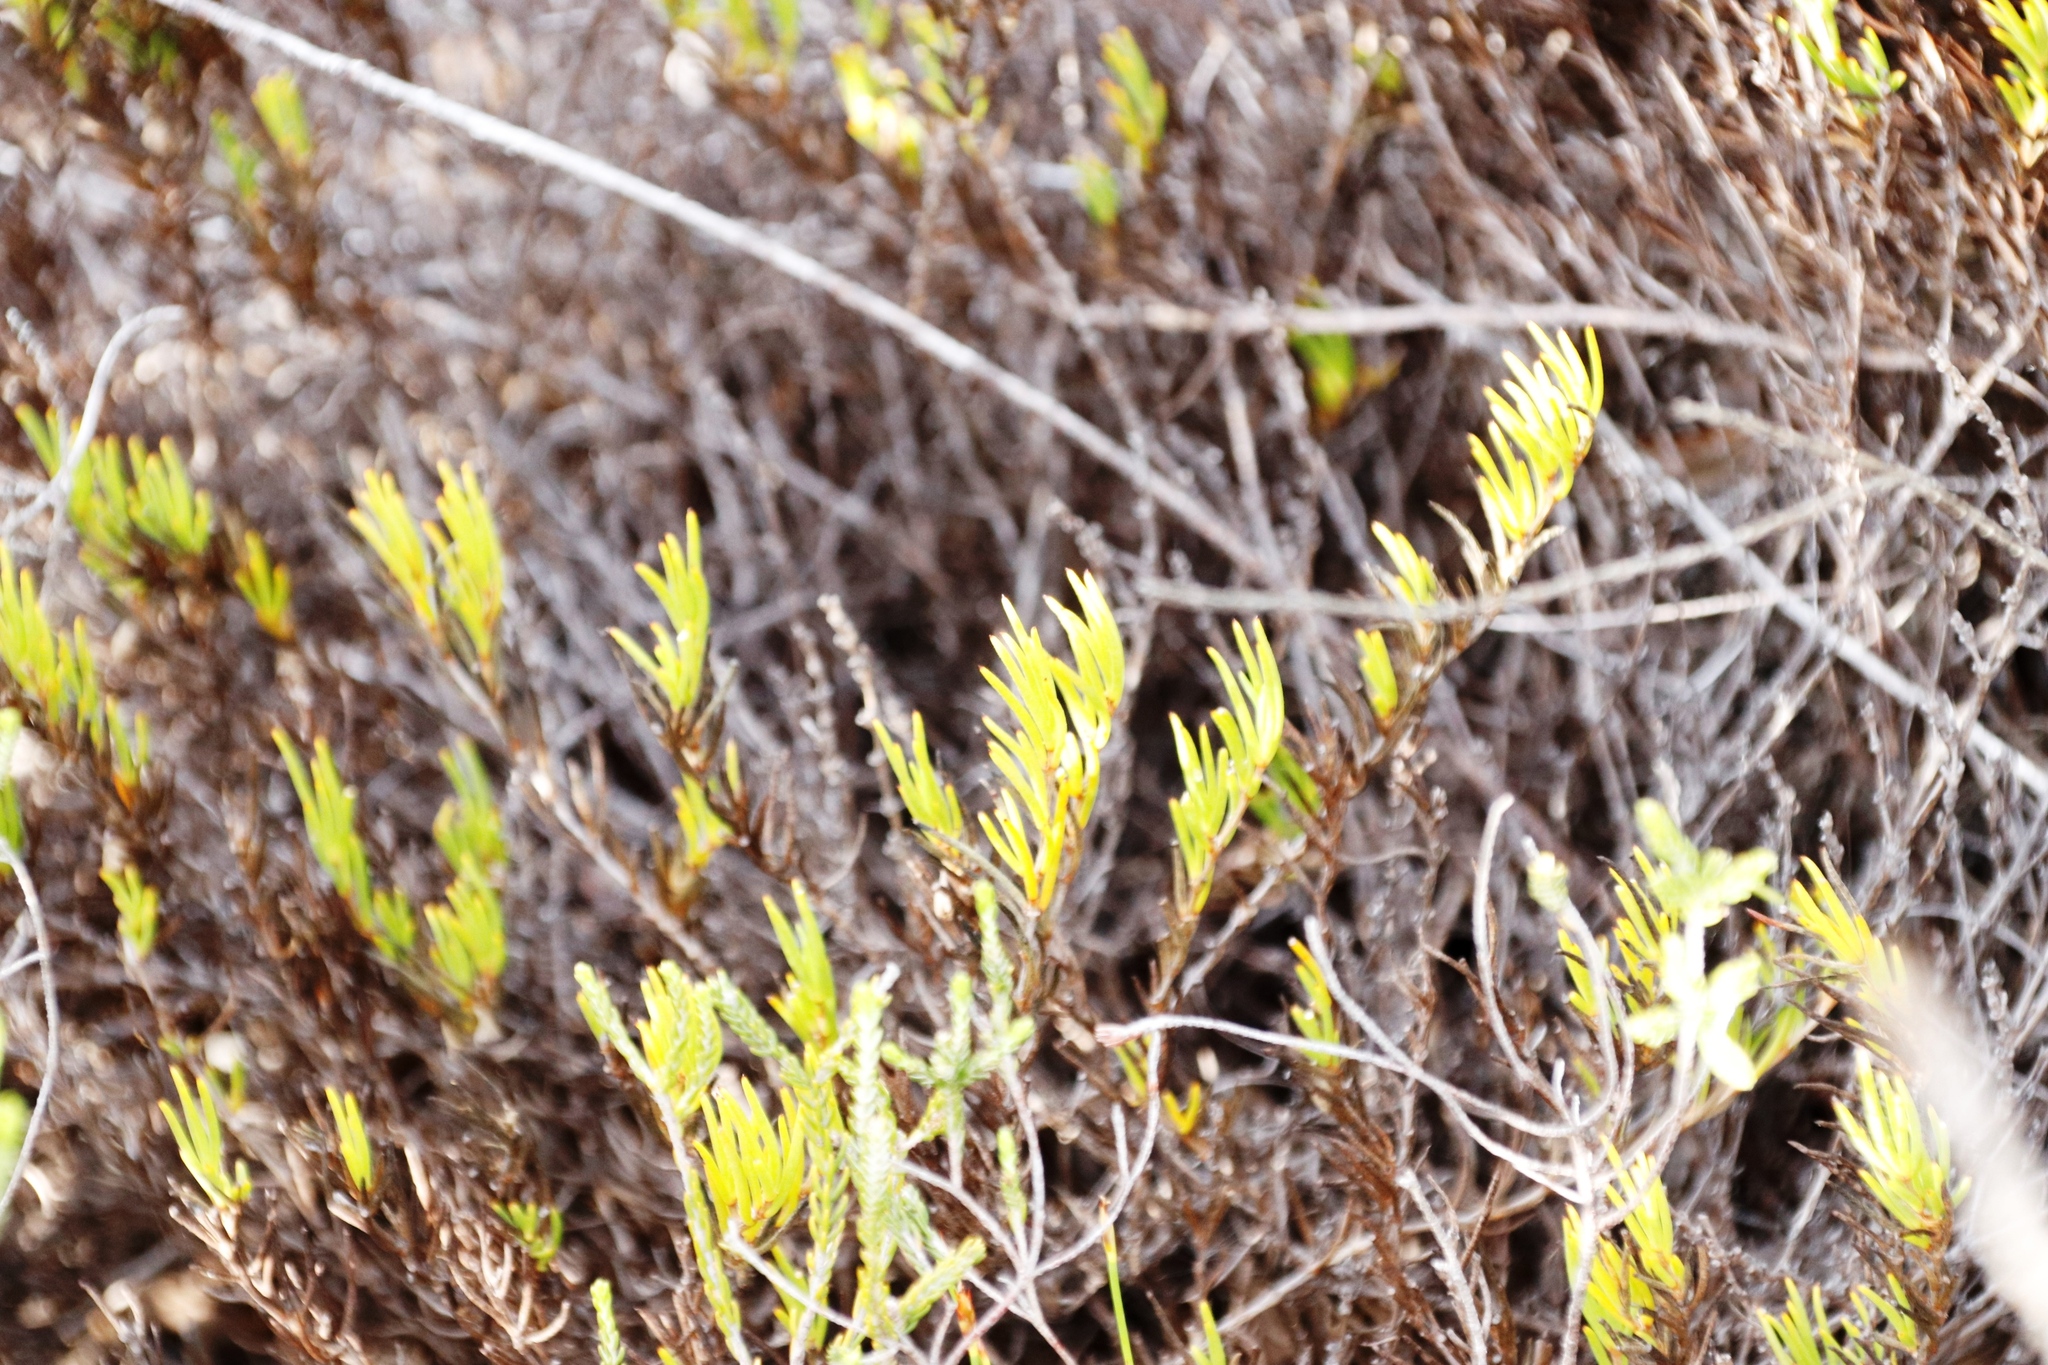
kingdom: Plantae
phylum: Tracheophyta
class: Magnoliopsida
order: Caryophyllales
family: Aizoaceae
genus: Acrosanthes
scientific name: Acrosanthes teretifolia
